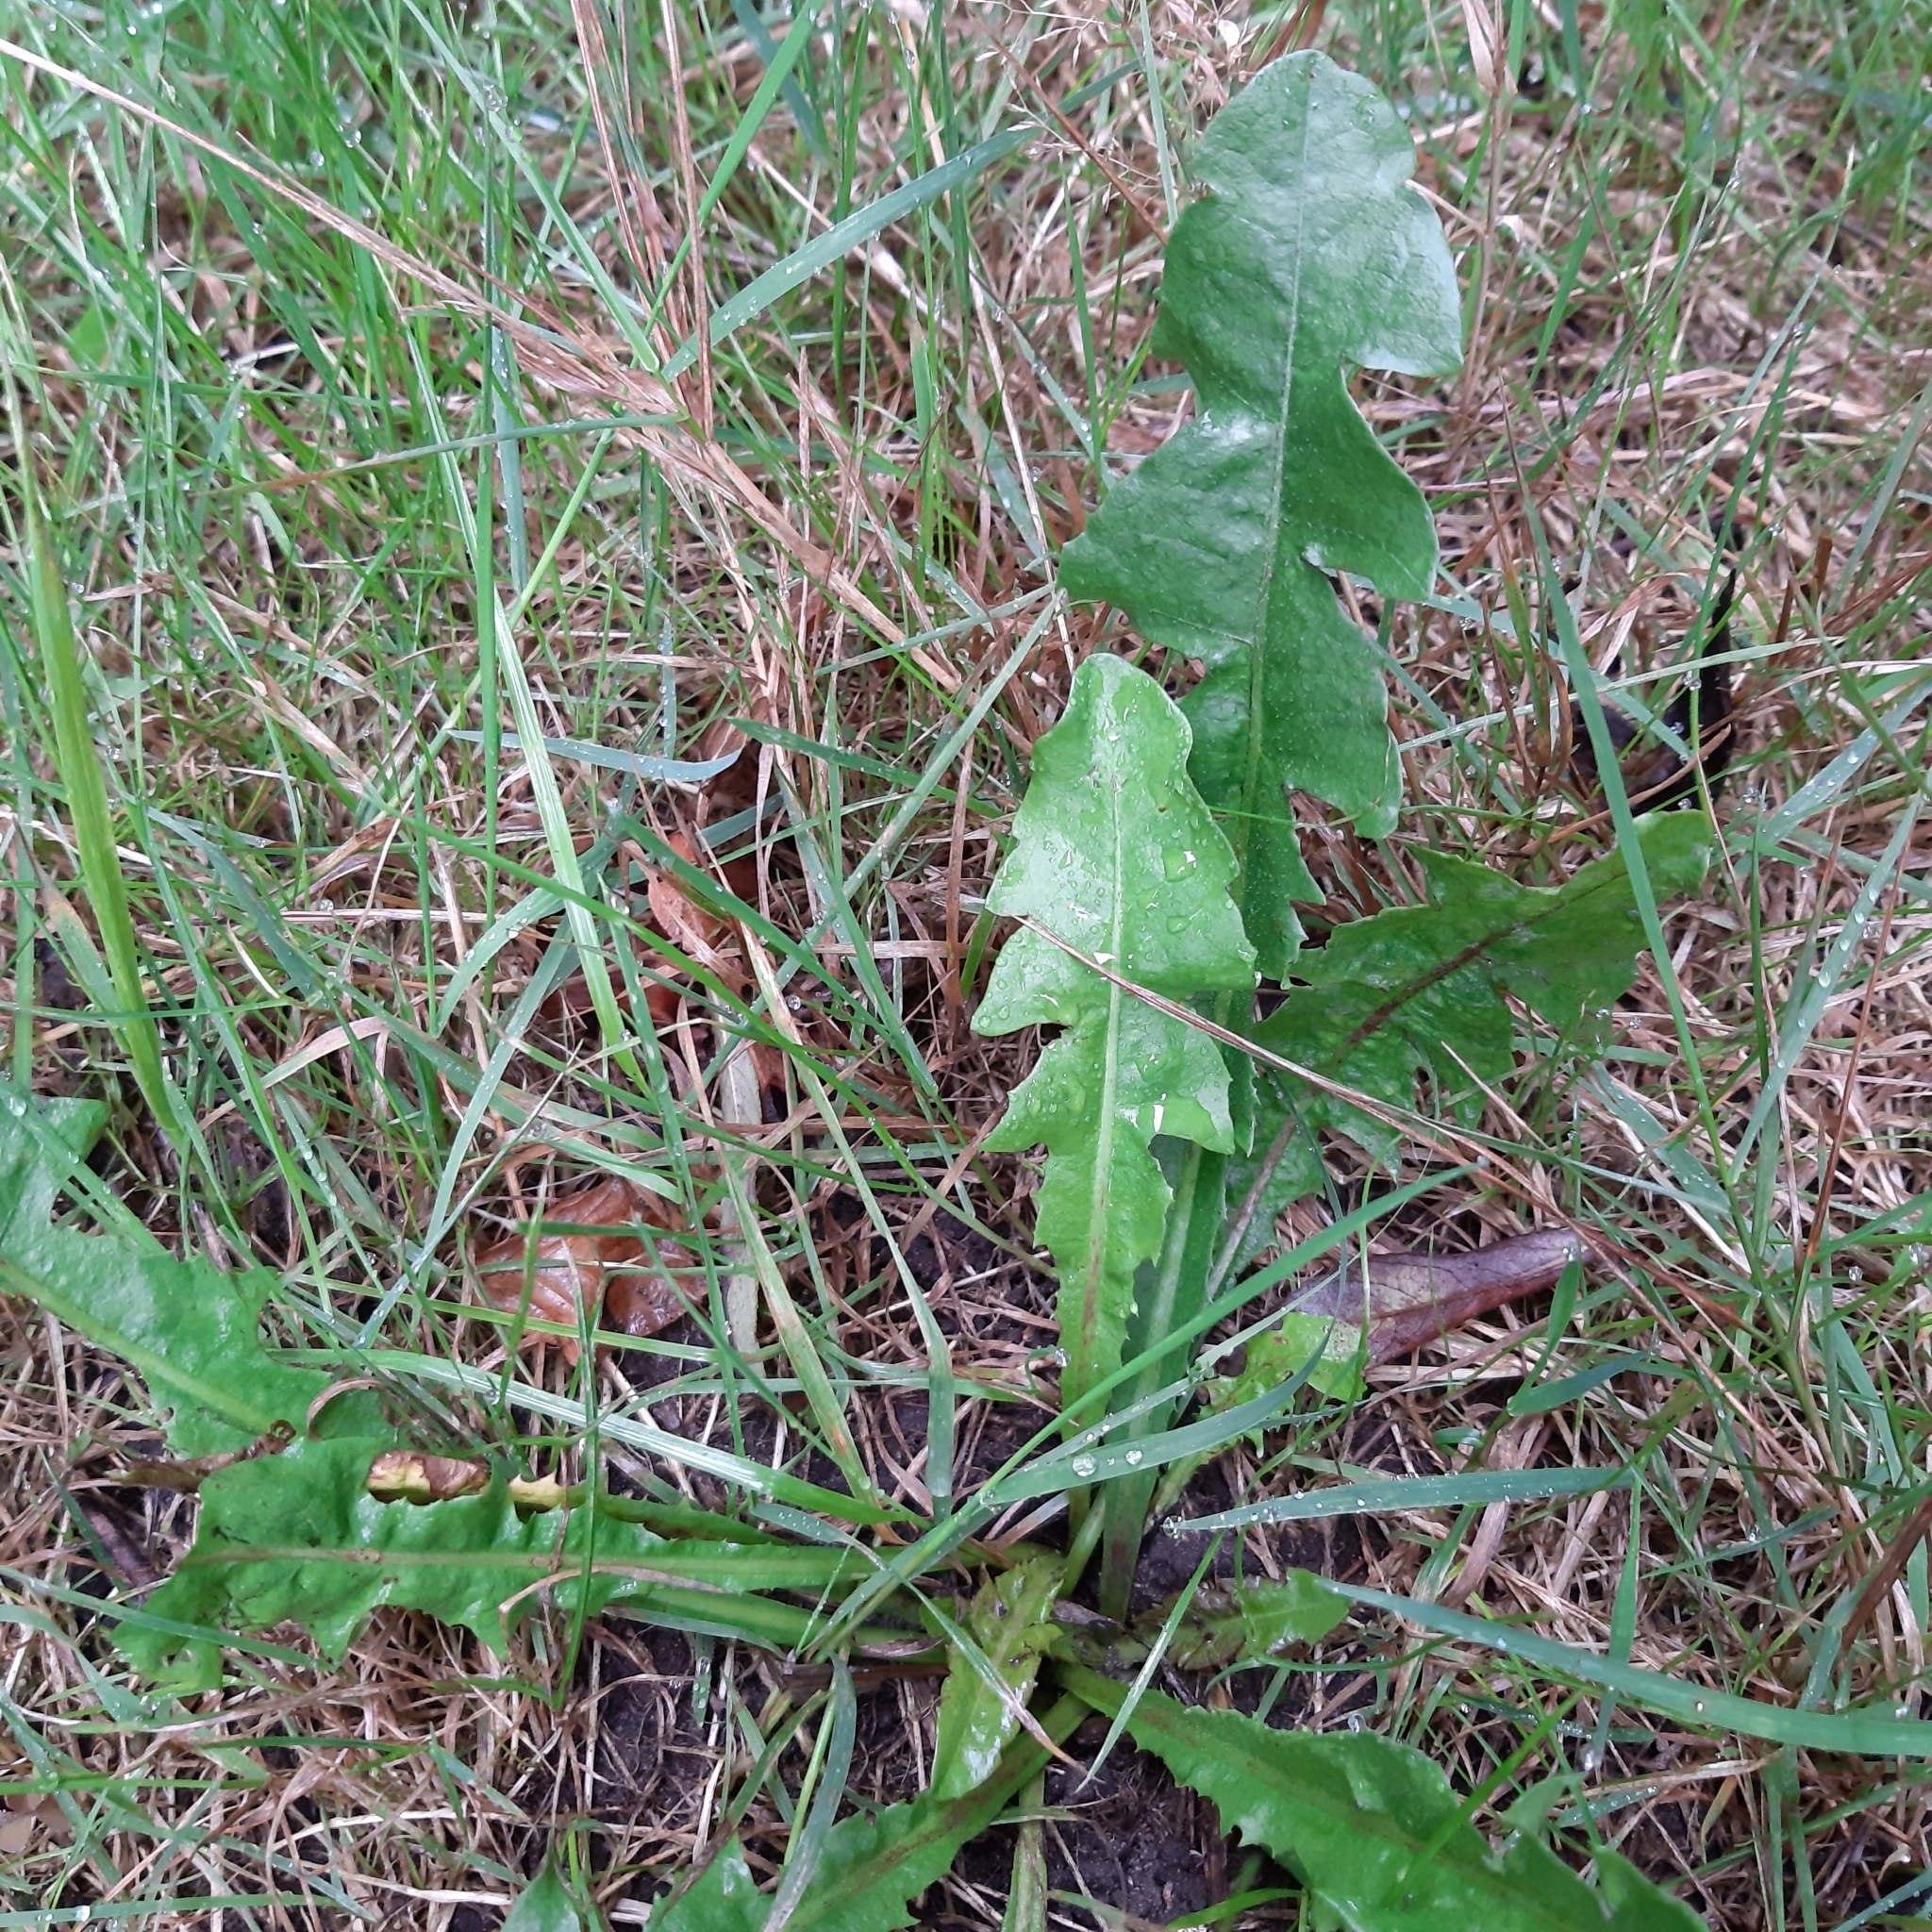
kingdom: Plantae
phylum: Tracheophyta
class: Magnoliopsida
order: Asterales
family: Asteraceae
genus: Taraxacum
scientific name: Taraxacum officinale
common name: Common dandelion
